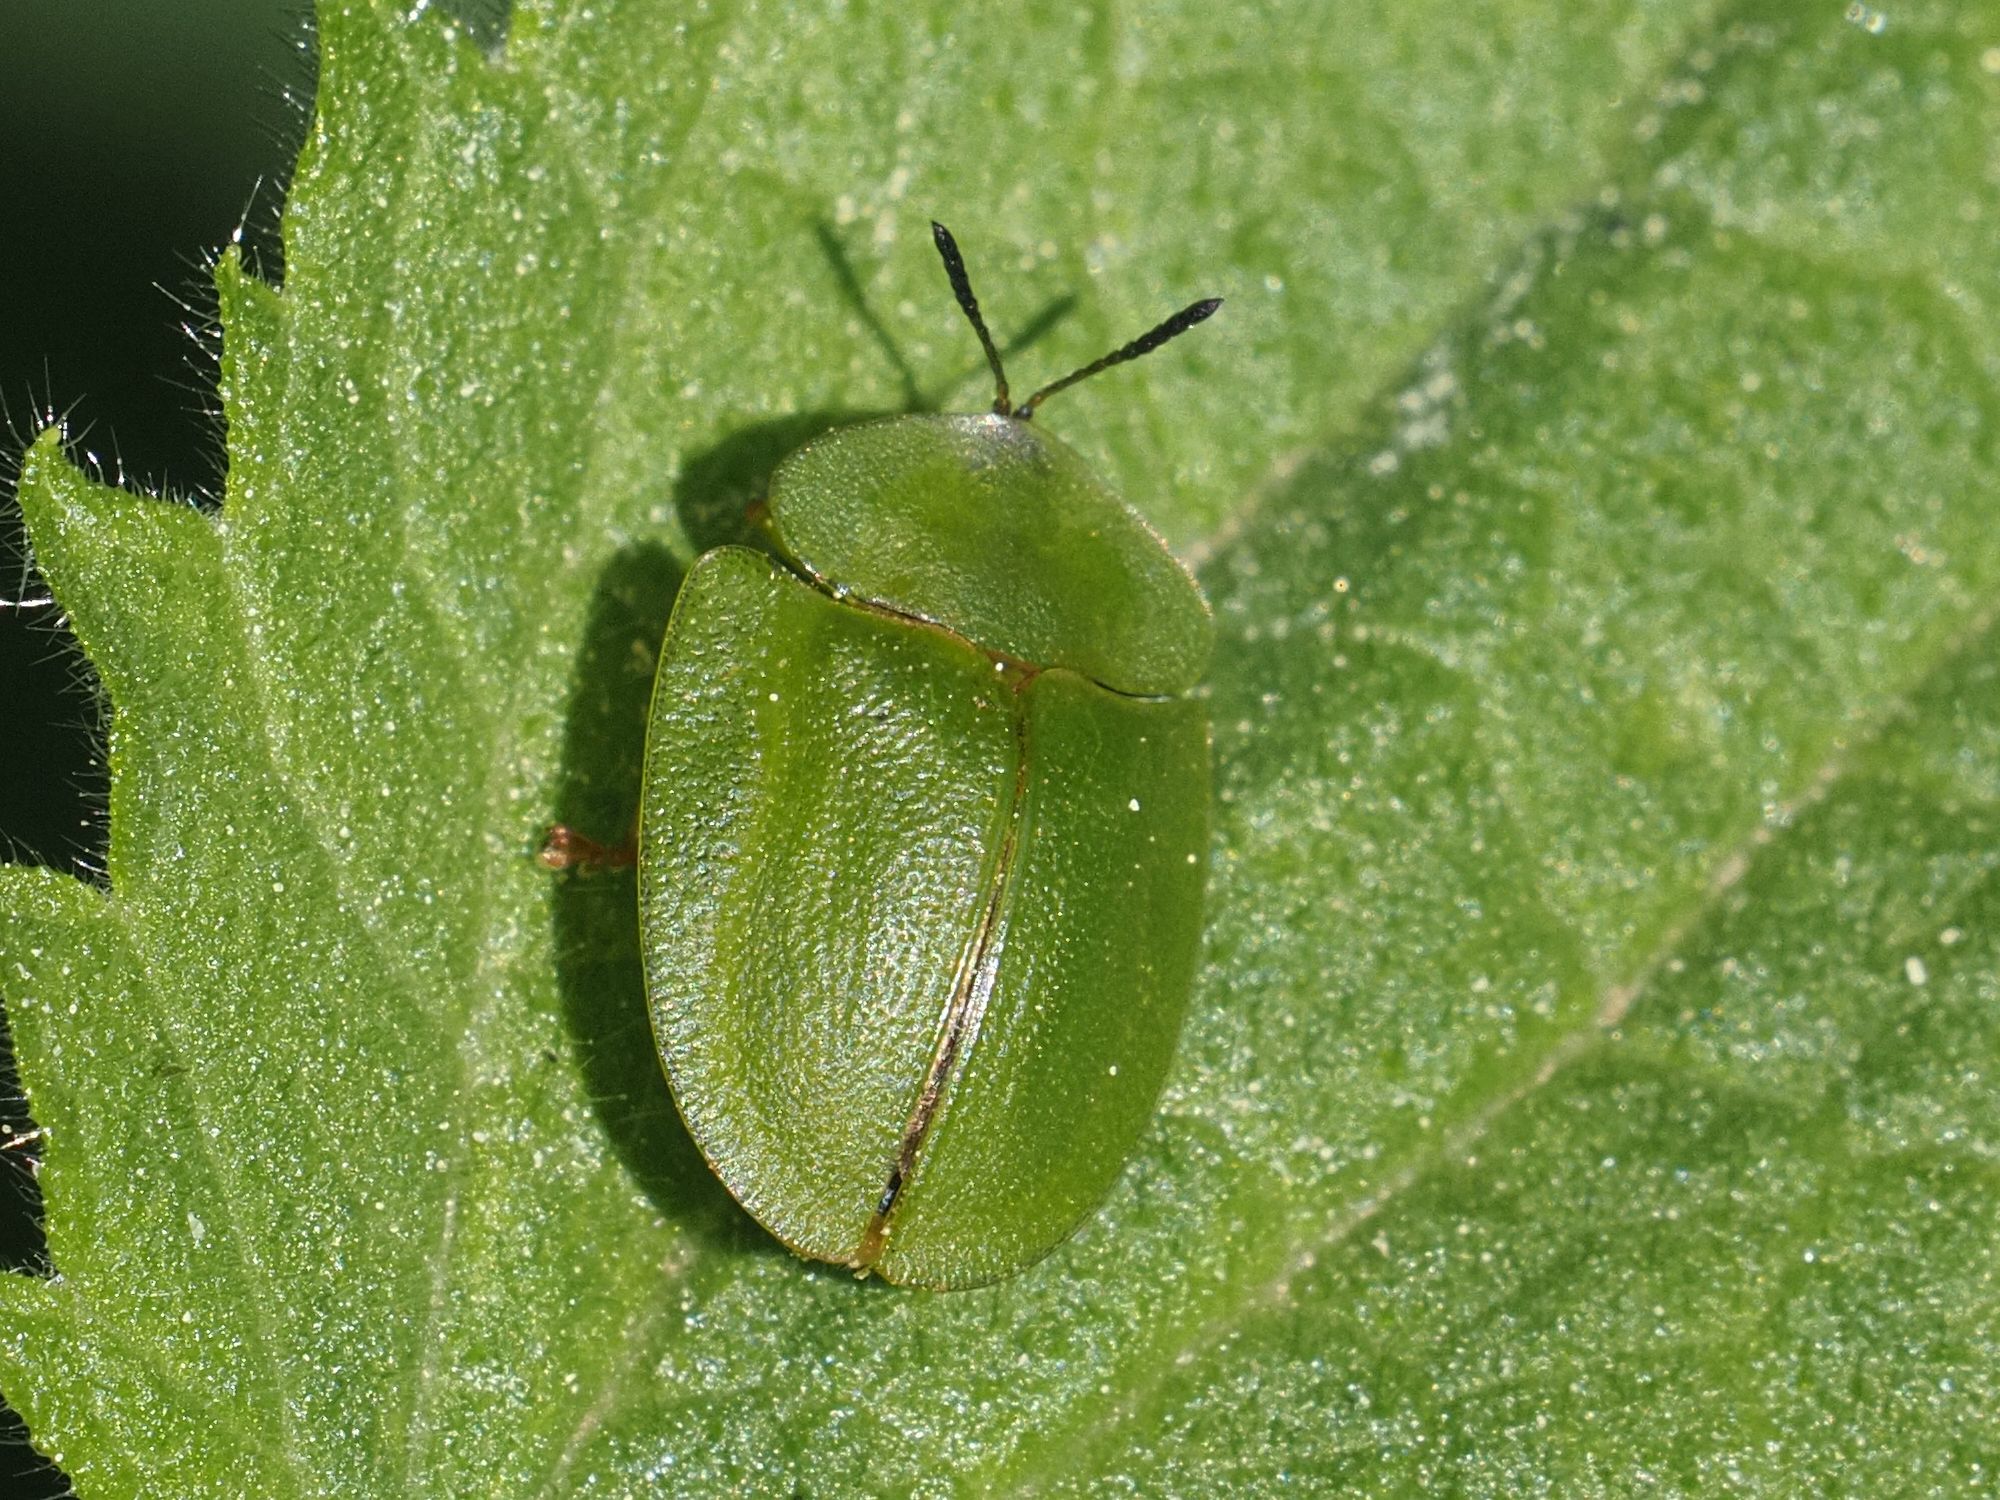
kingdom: Animalia
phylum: Arthropoda
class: Insecta
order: Coleoptera
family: Chrysomelidae
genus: Cassida
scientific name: Cassida viridis
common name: Green tortoise beetle
